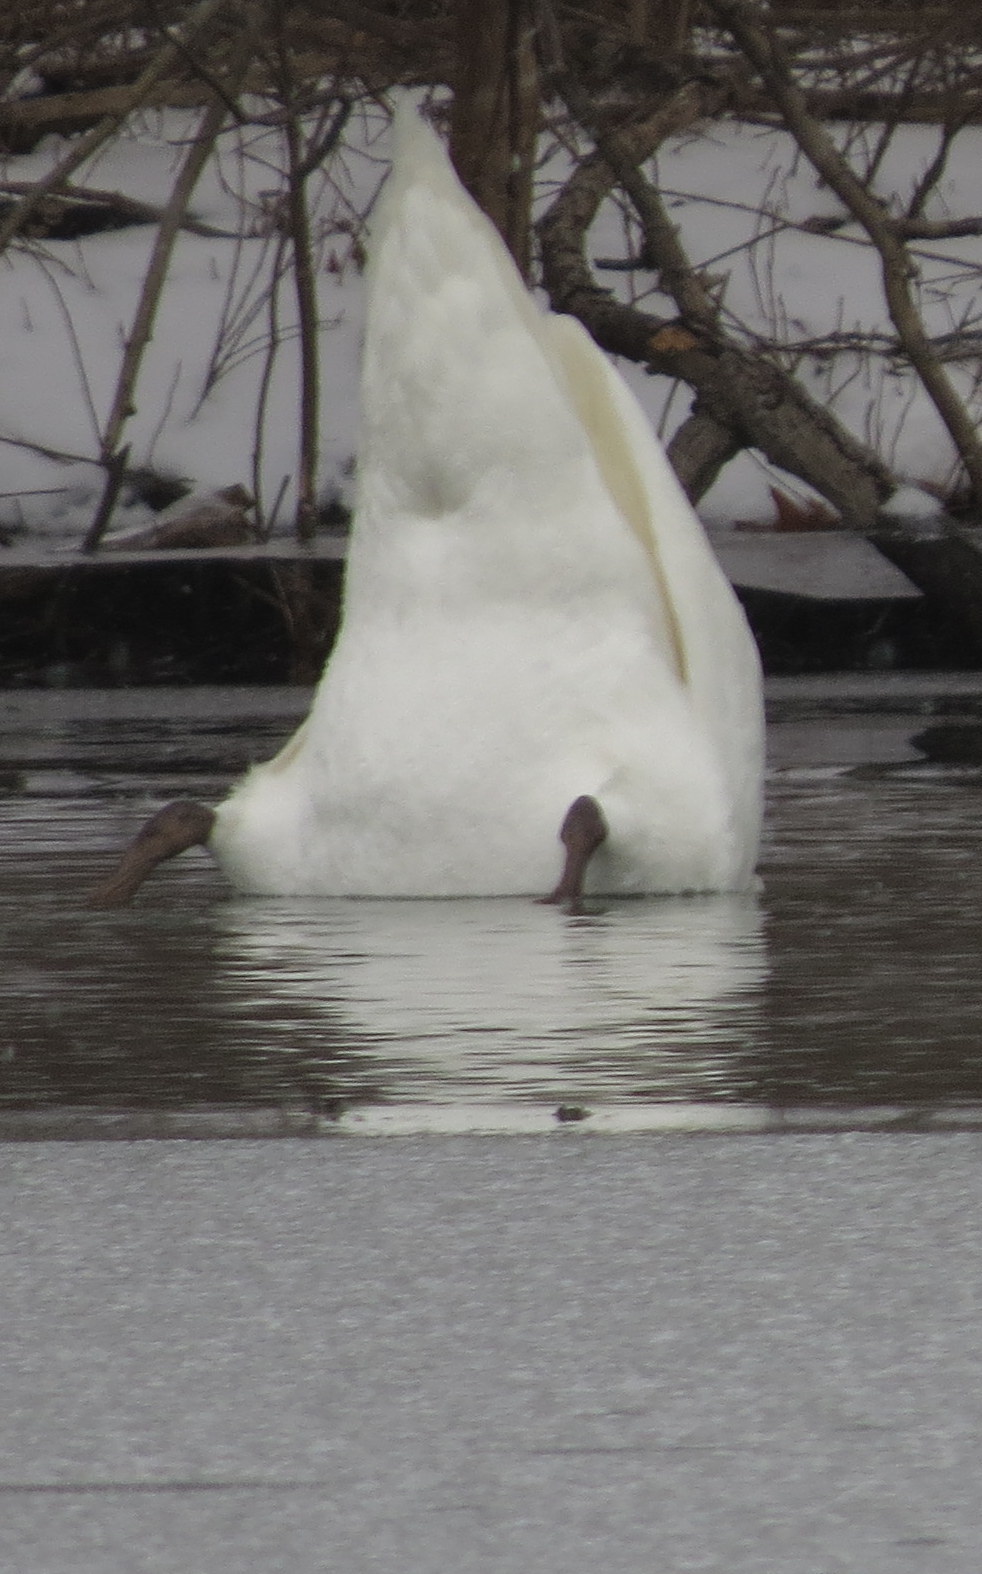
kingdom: Animalia
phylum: Chordata
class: Aves
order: Anseriformes
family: Anatidae
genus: Cygnus
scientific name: Cygnus olor
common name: Mute swan
